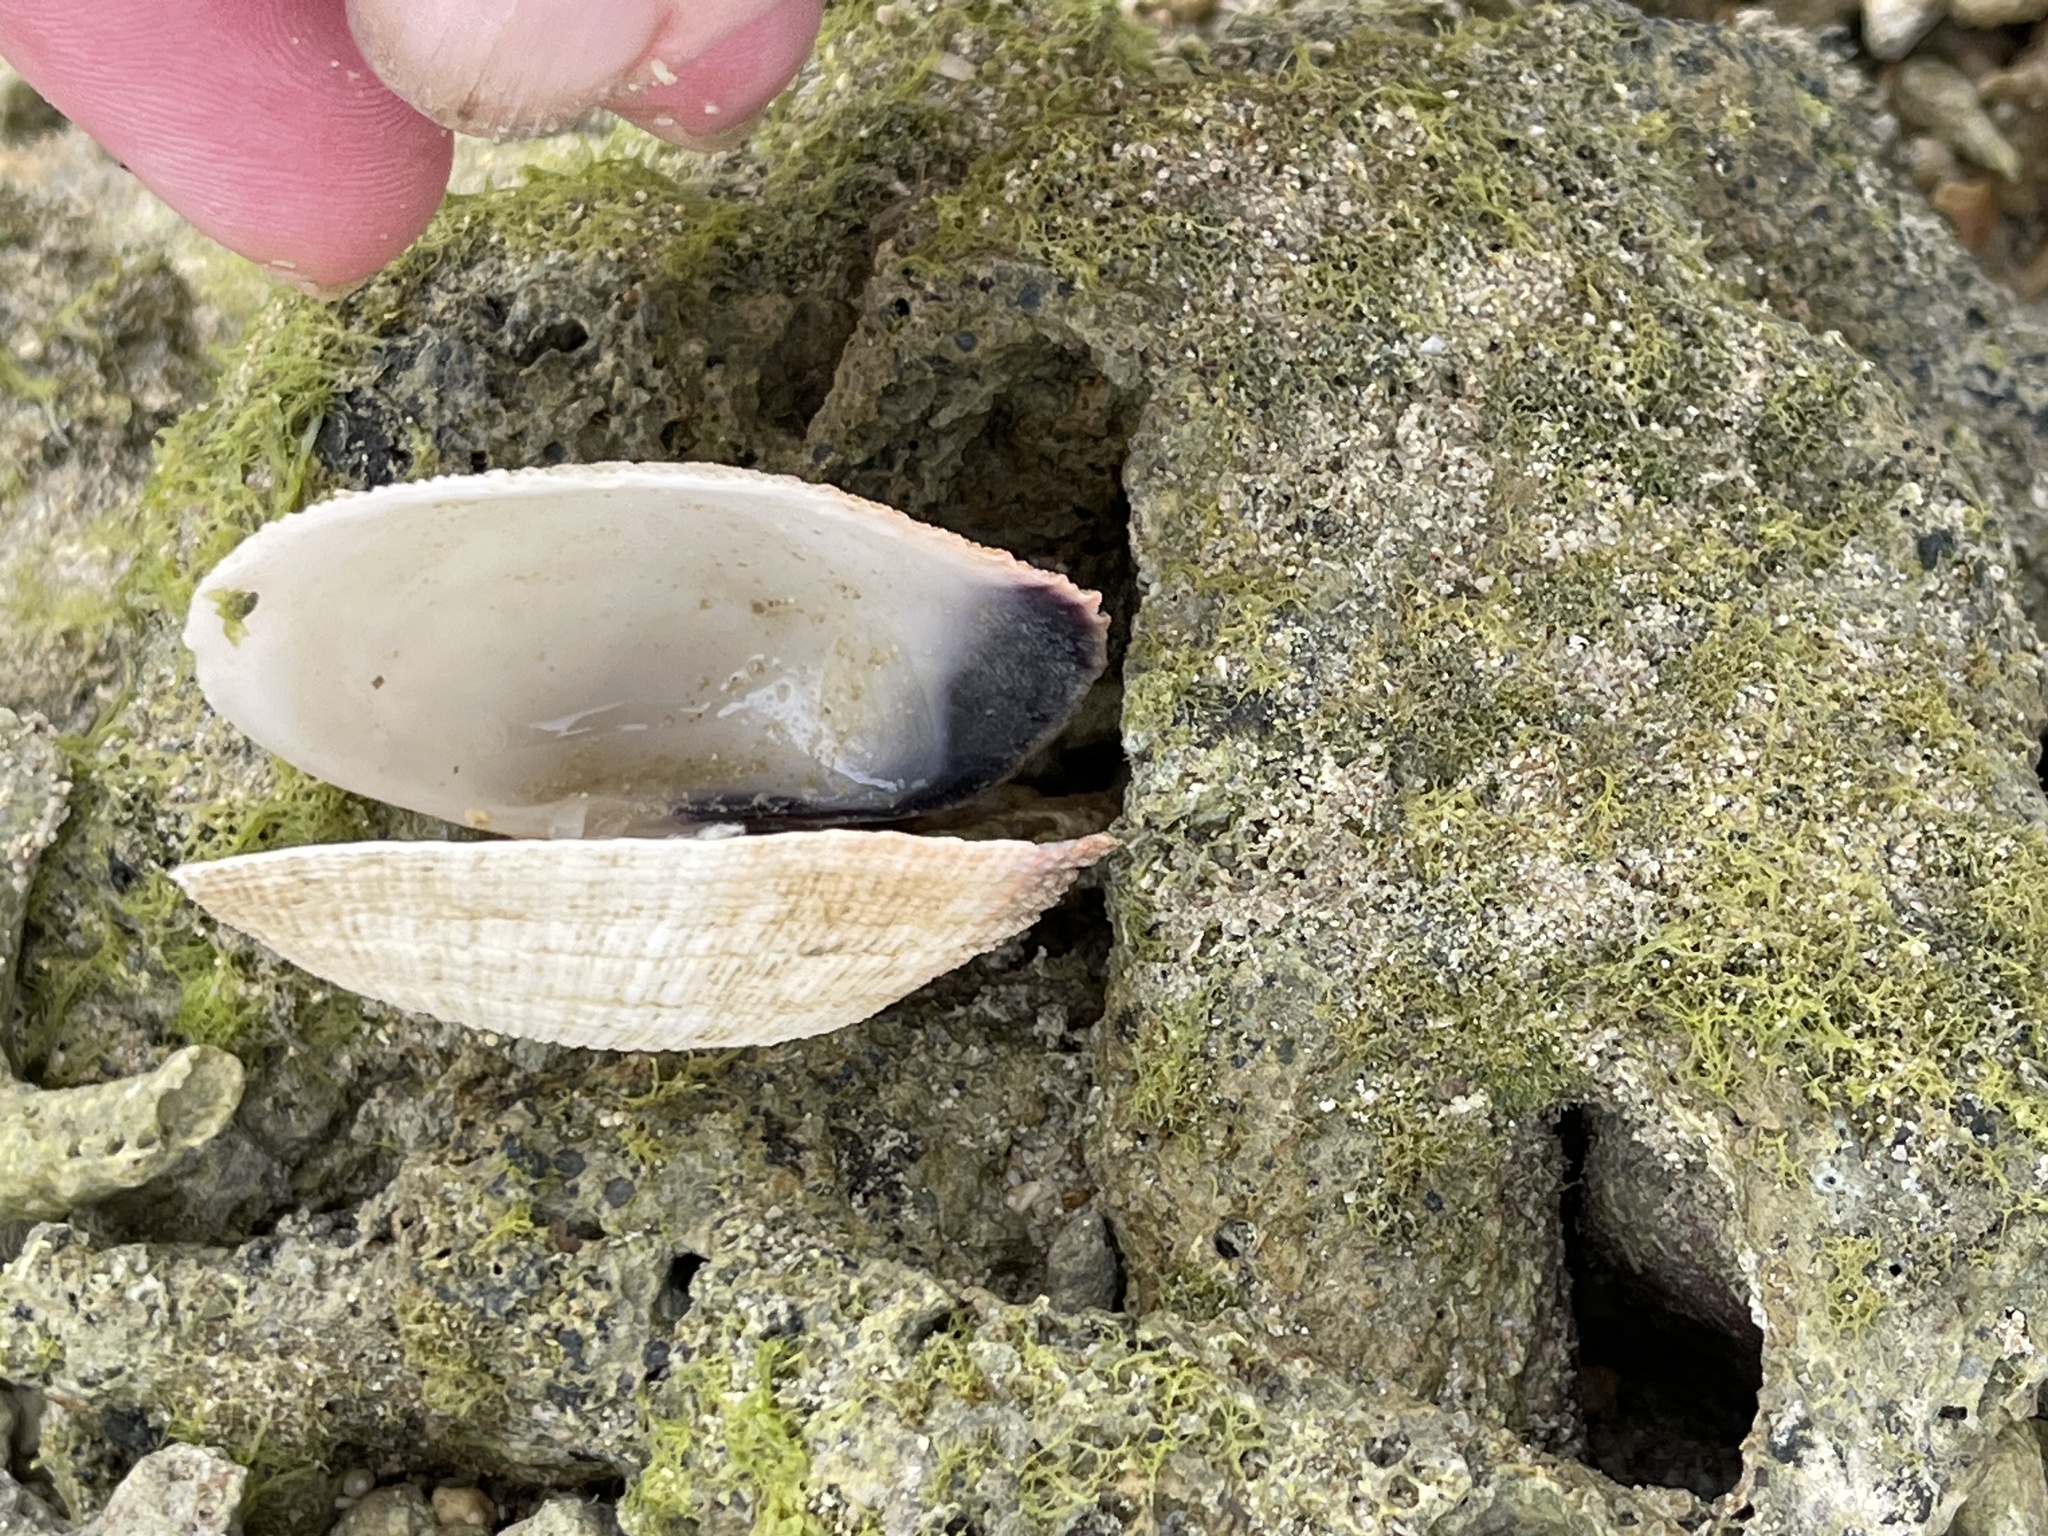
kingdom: Animalia
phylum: Mollusca
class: Bivalvia
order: Cardiida
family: Psammobiidae
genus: Asaphis
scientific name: Asaphis violascens
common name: Pacific asaphis
